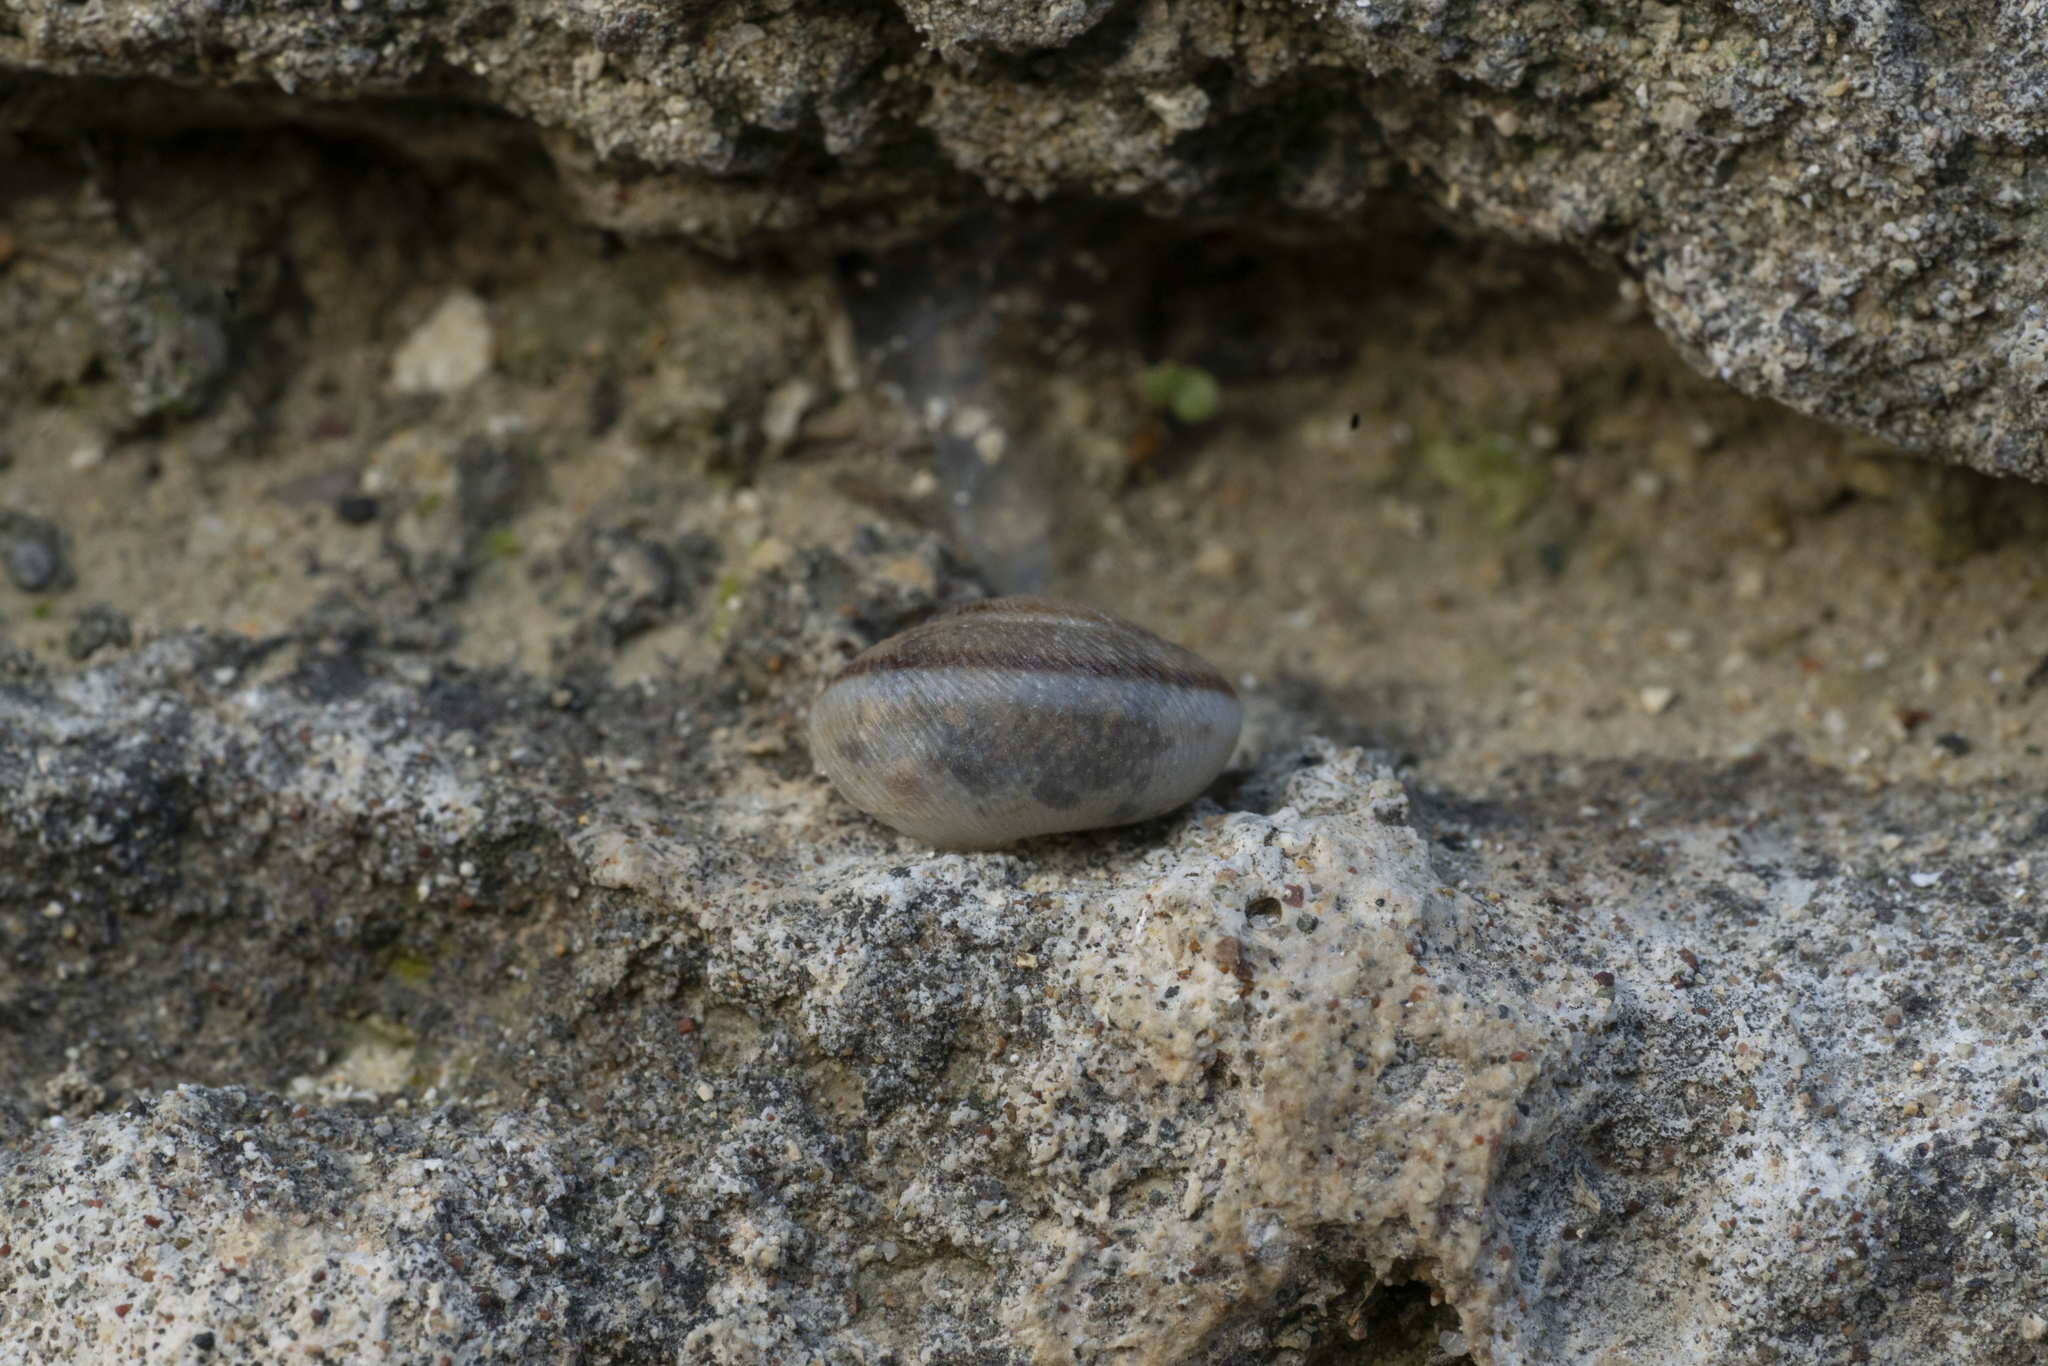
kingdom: Animalia
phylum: Mollusca
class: Gastropoda
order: Stylommatophora
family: Hygromiidae
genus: Metafruticicola
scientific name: Metafruticicola pellita
